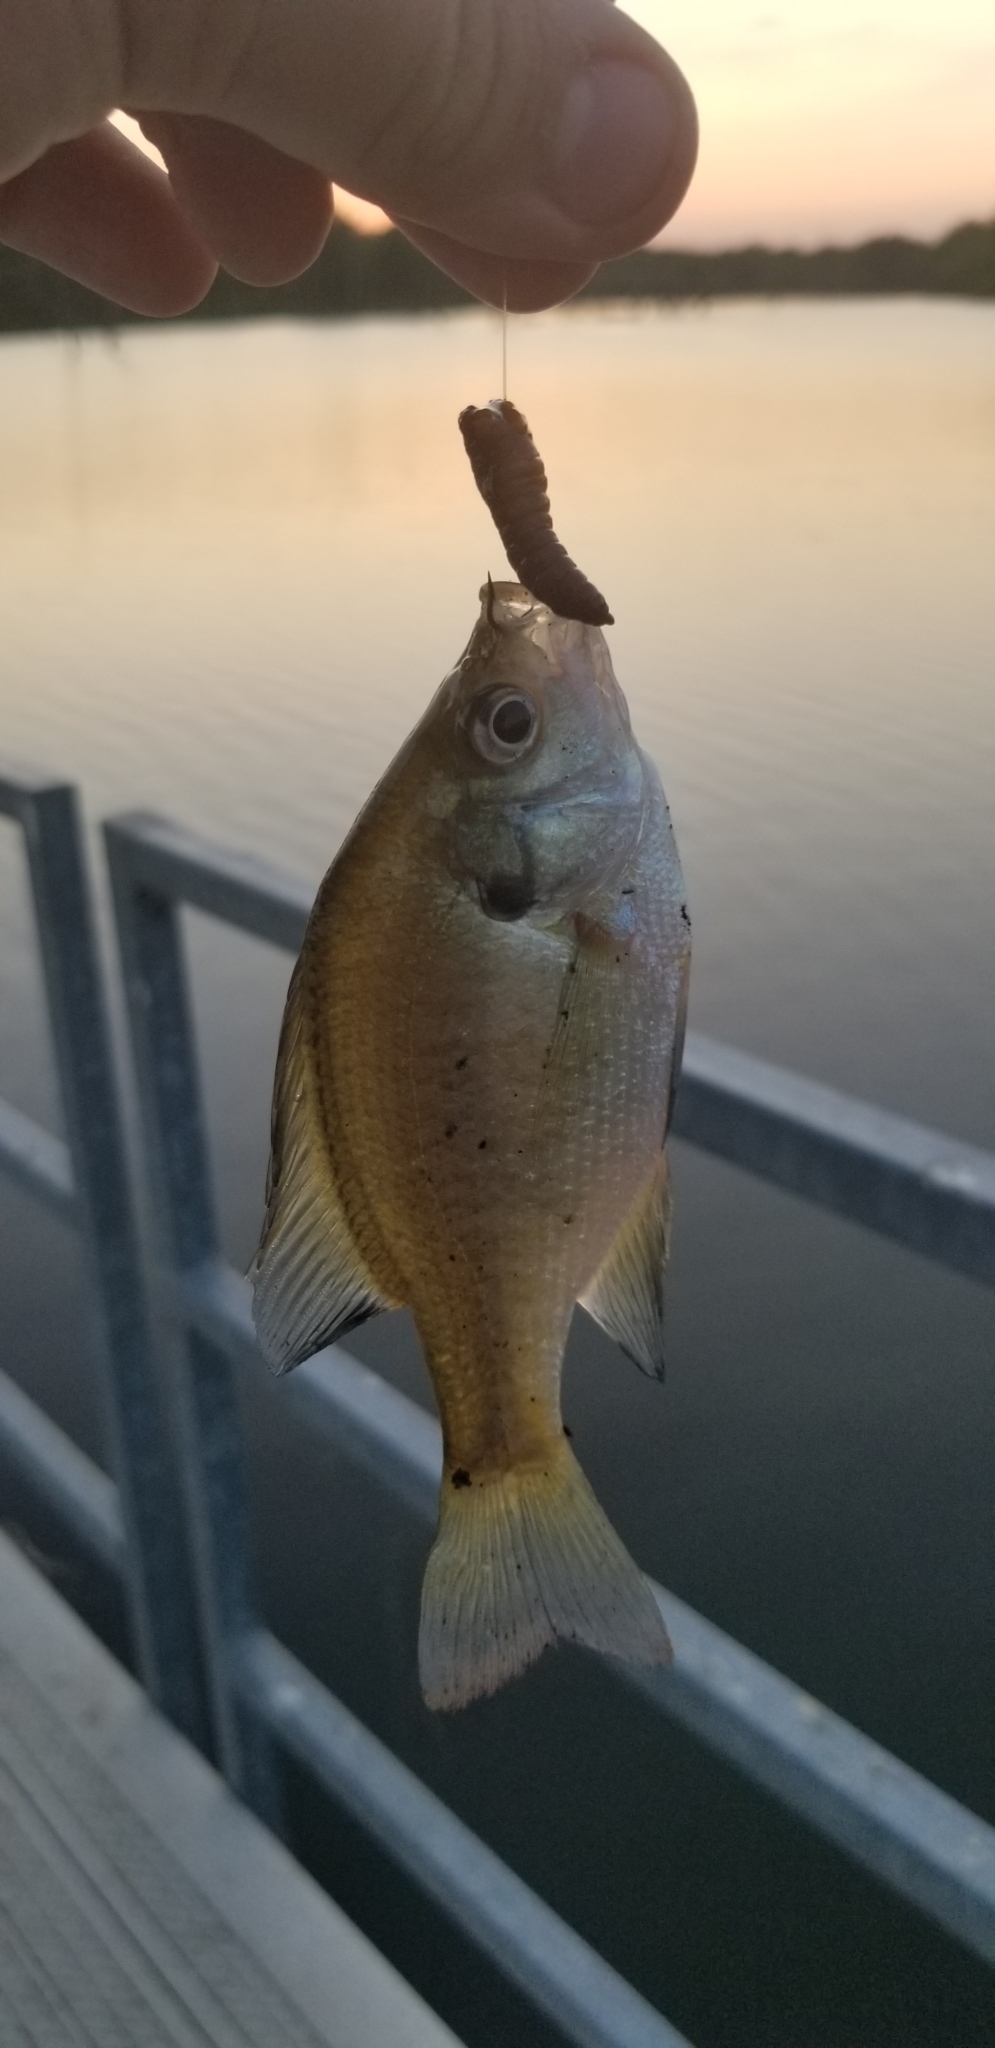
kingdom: Animalia
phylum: Chordata
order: Perciformes
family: Centrarchidae
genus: Lepomis
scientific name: Lepomis macrochirus
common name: Bluegill
